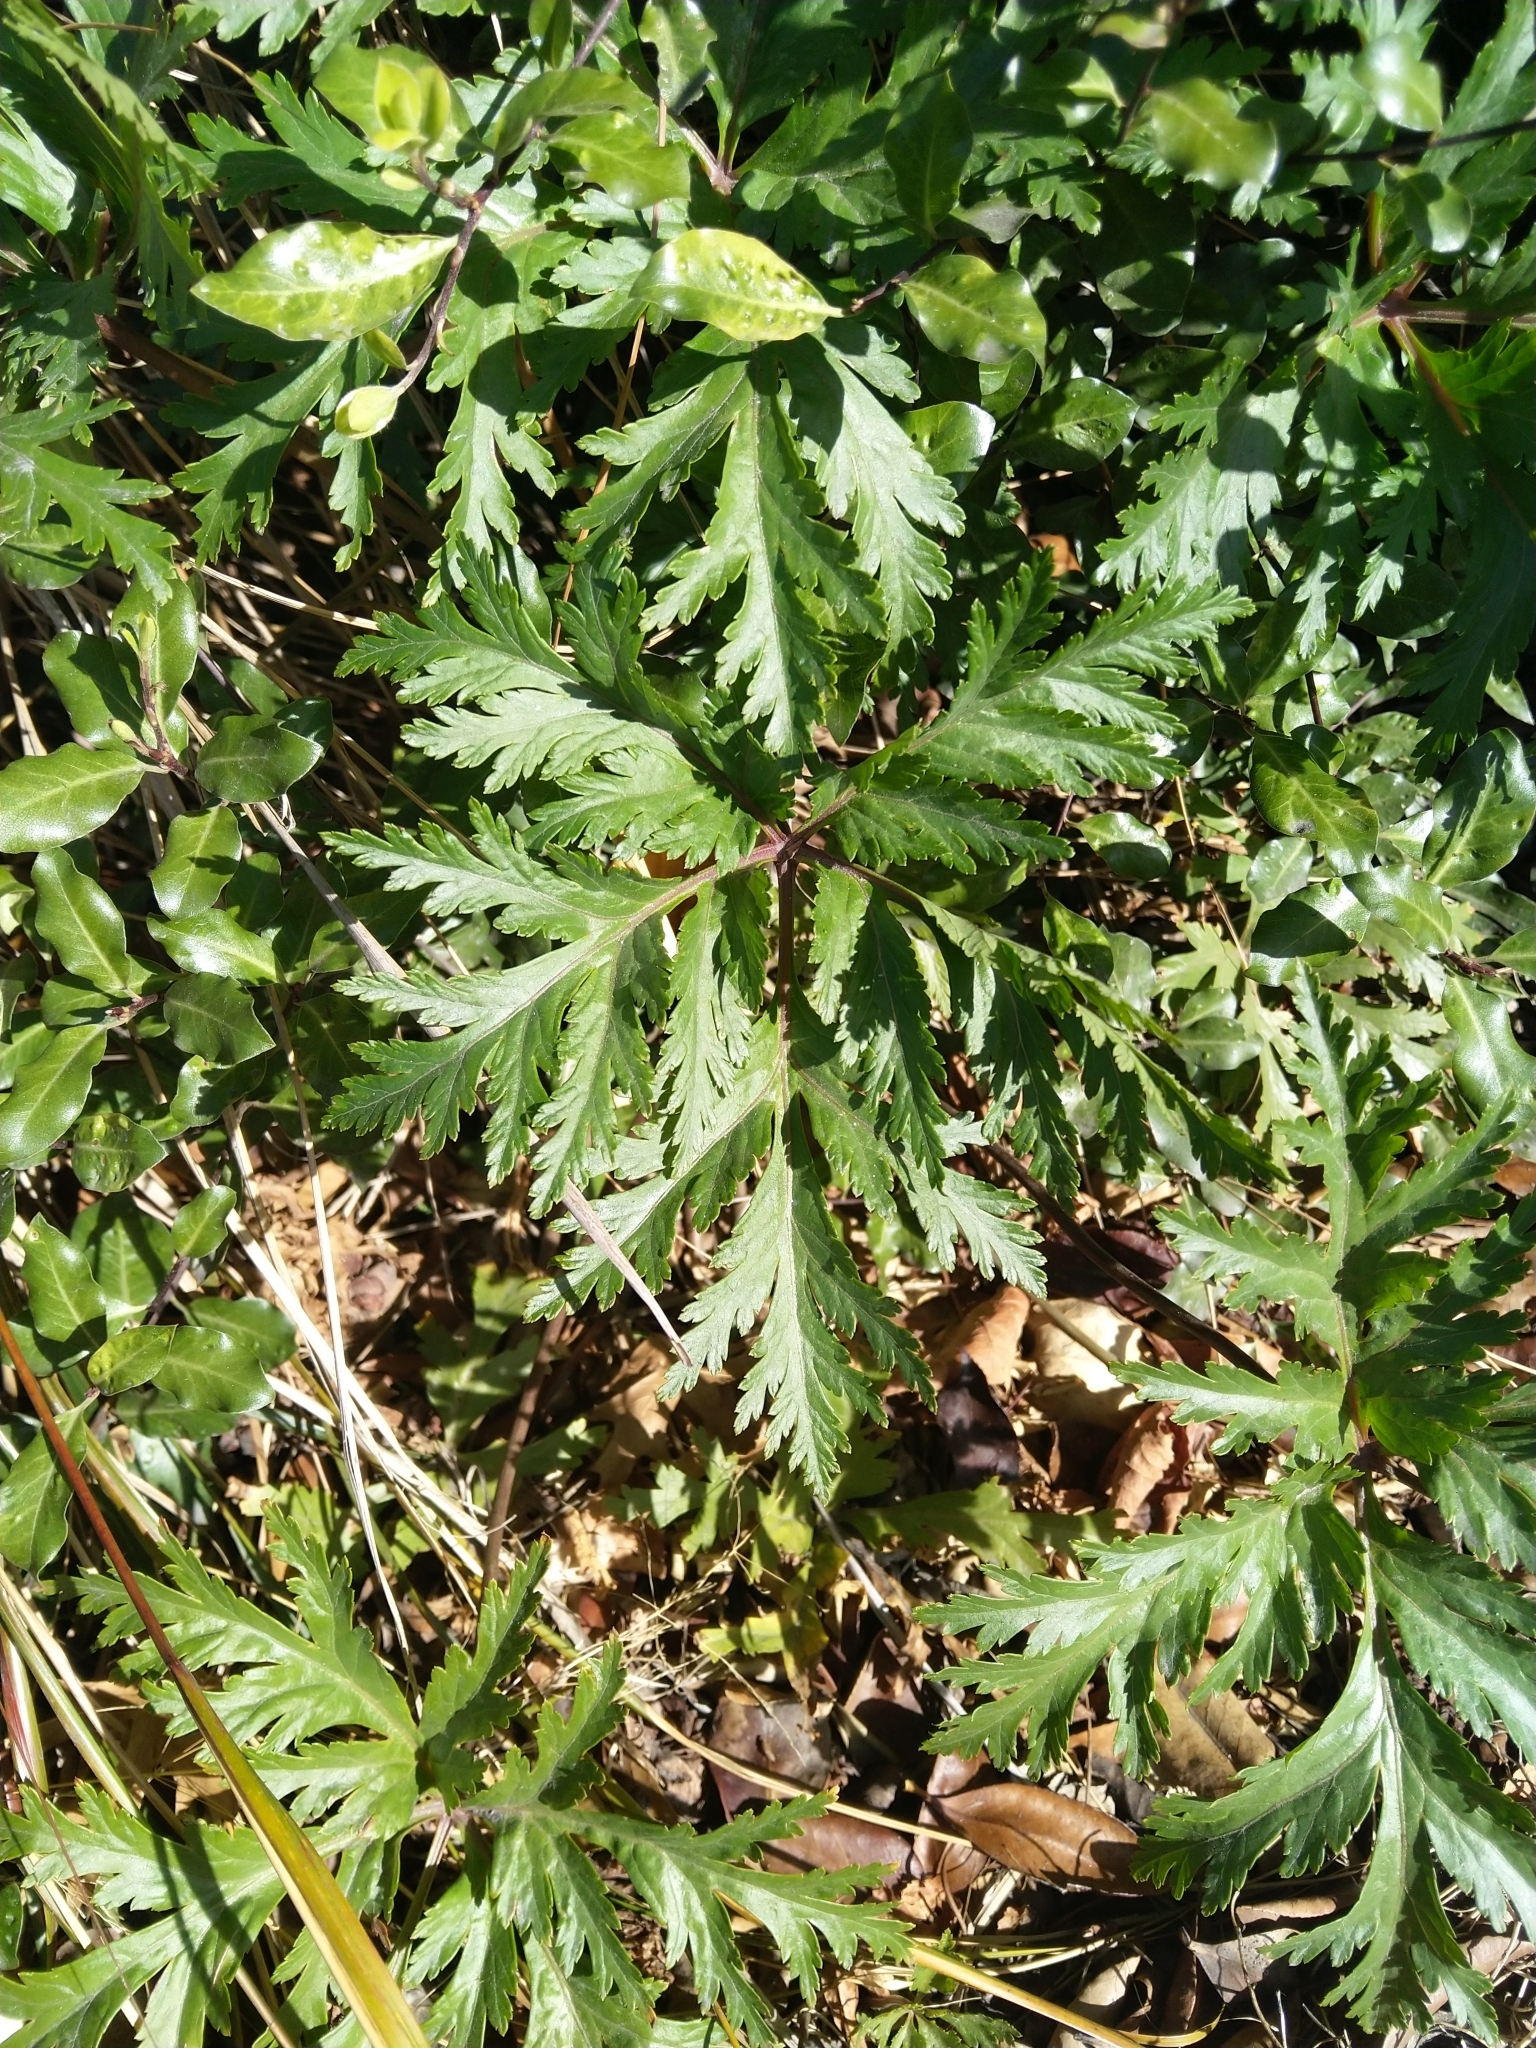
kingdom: Plantae
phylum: Tracheophyta
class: Magnoliopsida
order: Geraniales
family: Geraniaceae
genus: Geranium
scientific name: Geranium maderense
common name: Giant herb-robert
